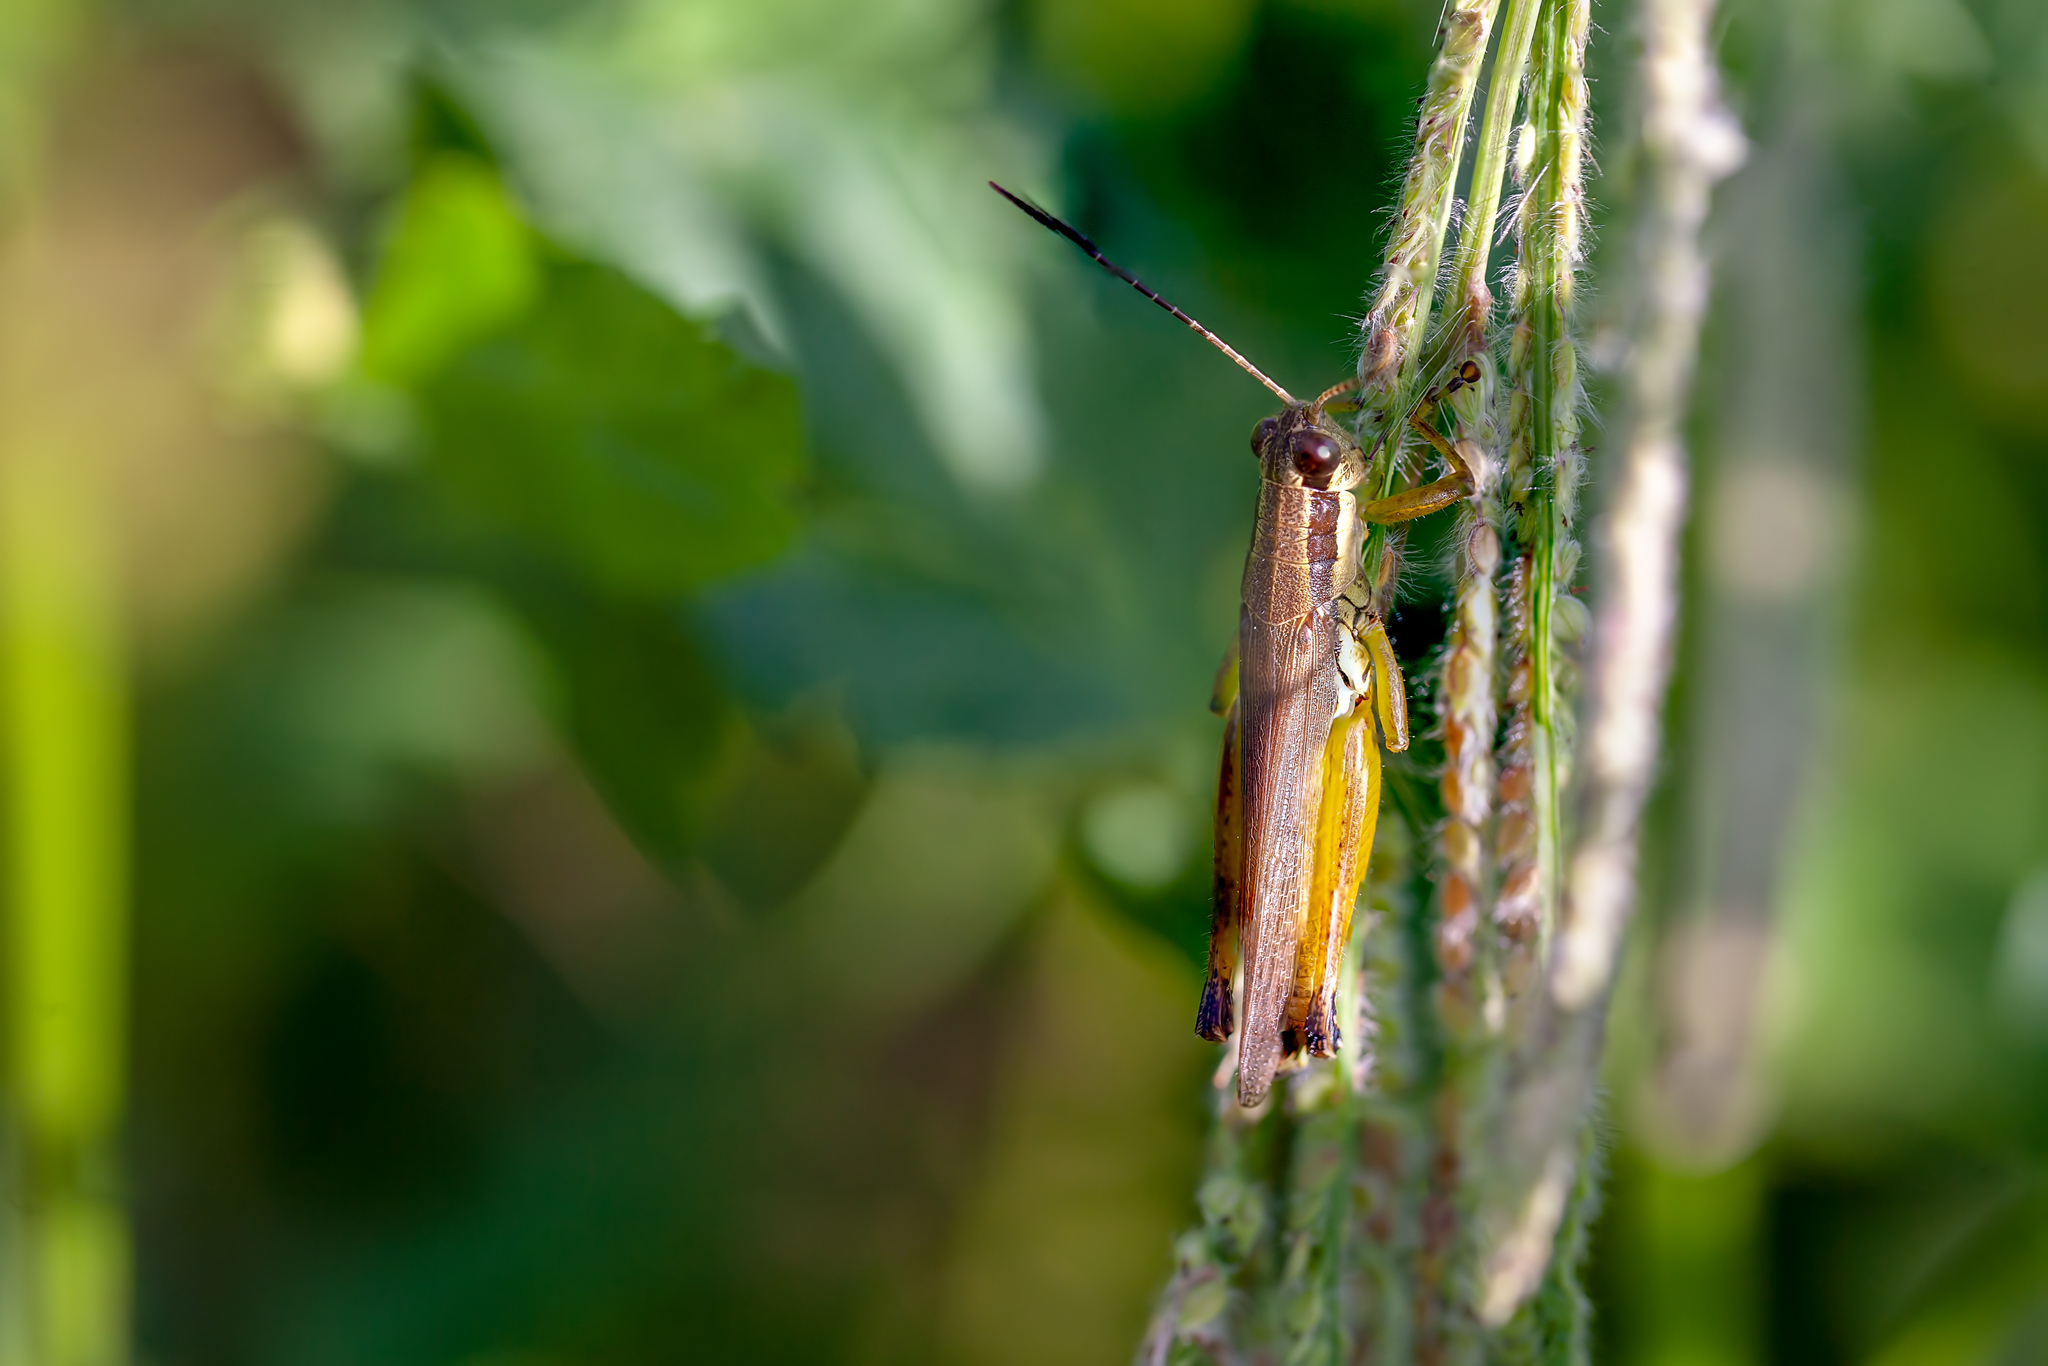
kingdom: Animalia
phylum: Arthropoda
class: Insecta
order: Orthoptera
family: Acrididae
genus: Paroxya
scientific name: Paroxya clavuligera
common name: Olive-green swamp grasshopper
